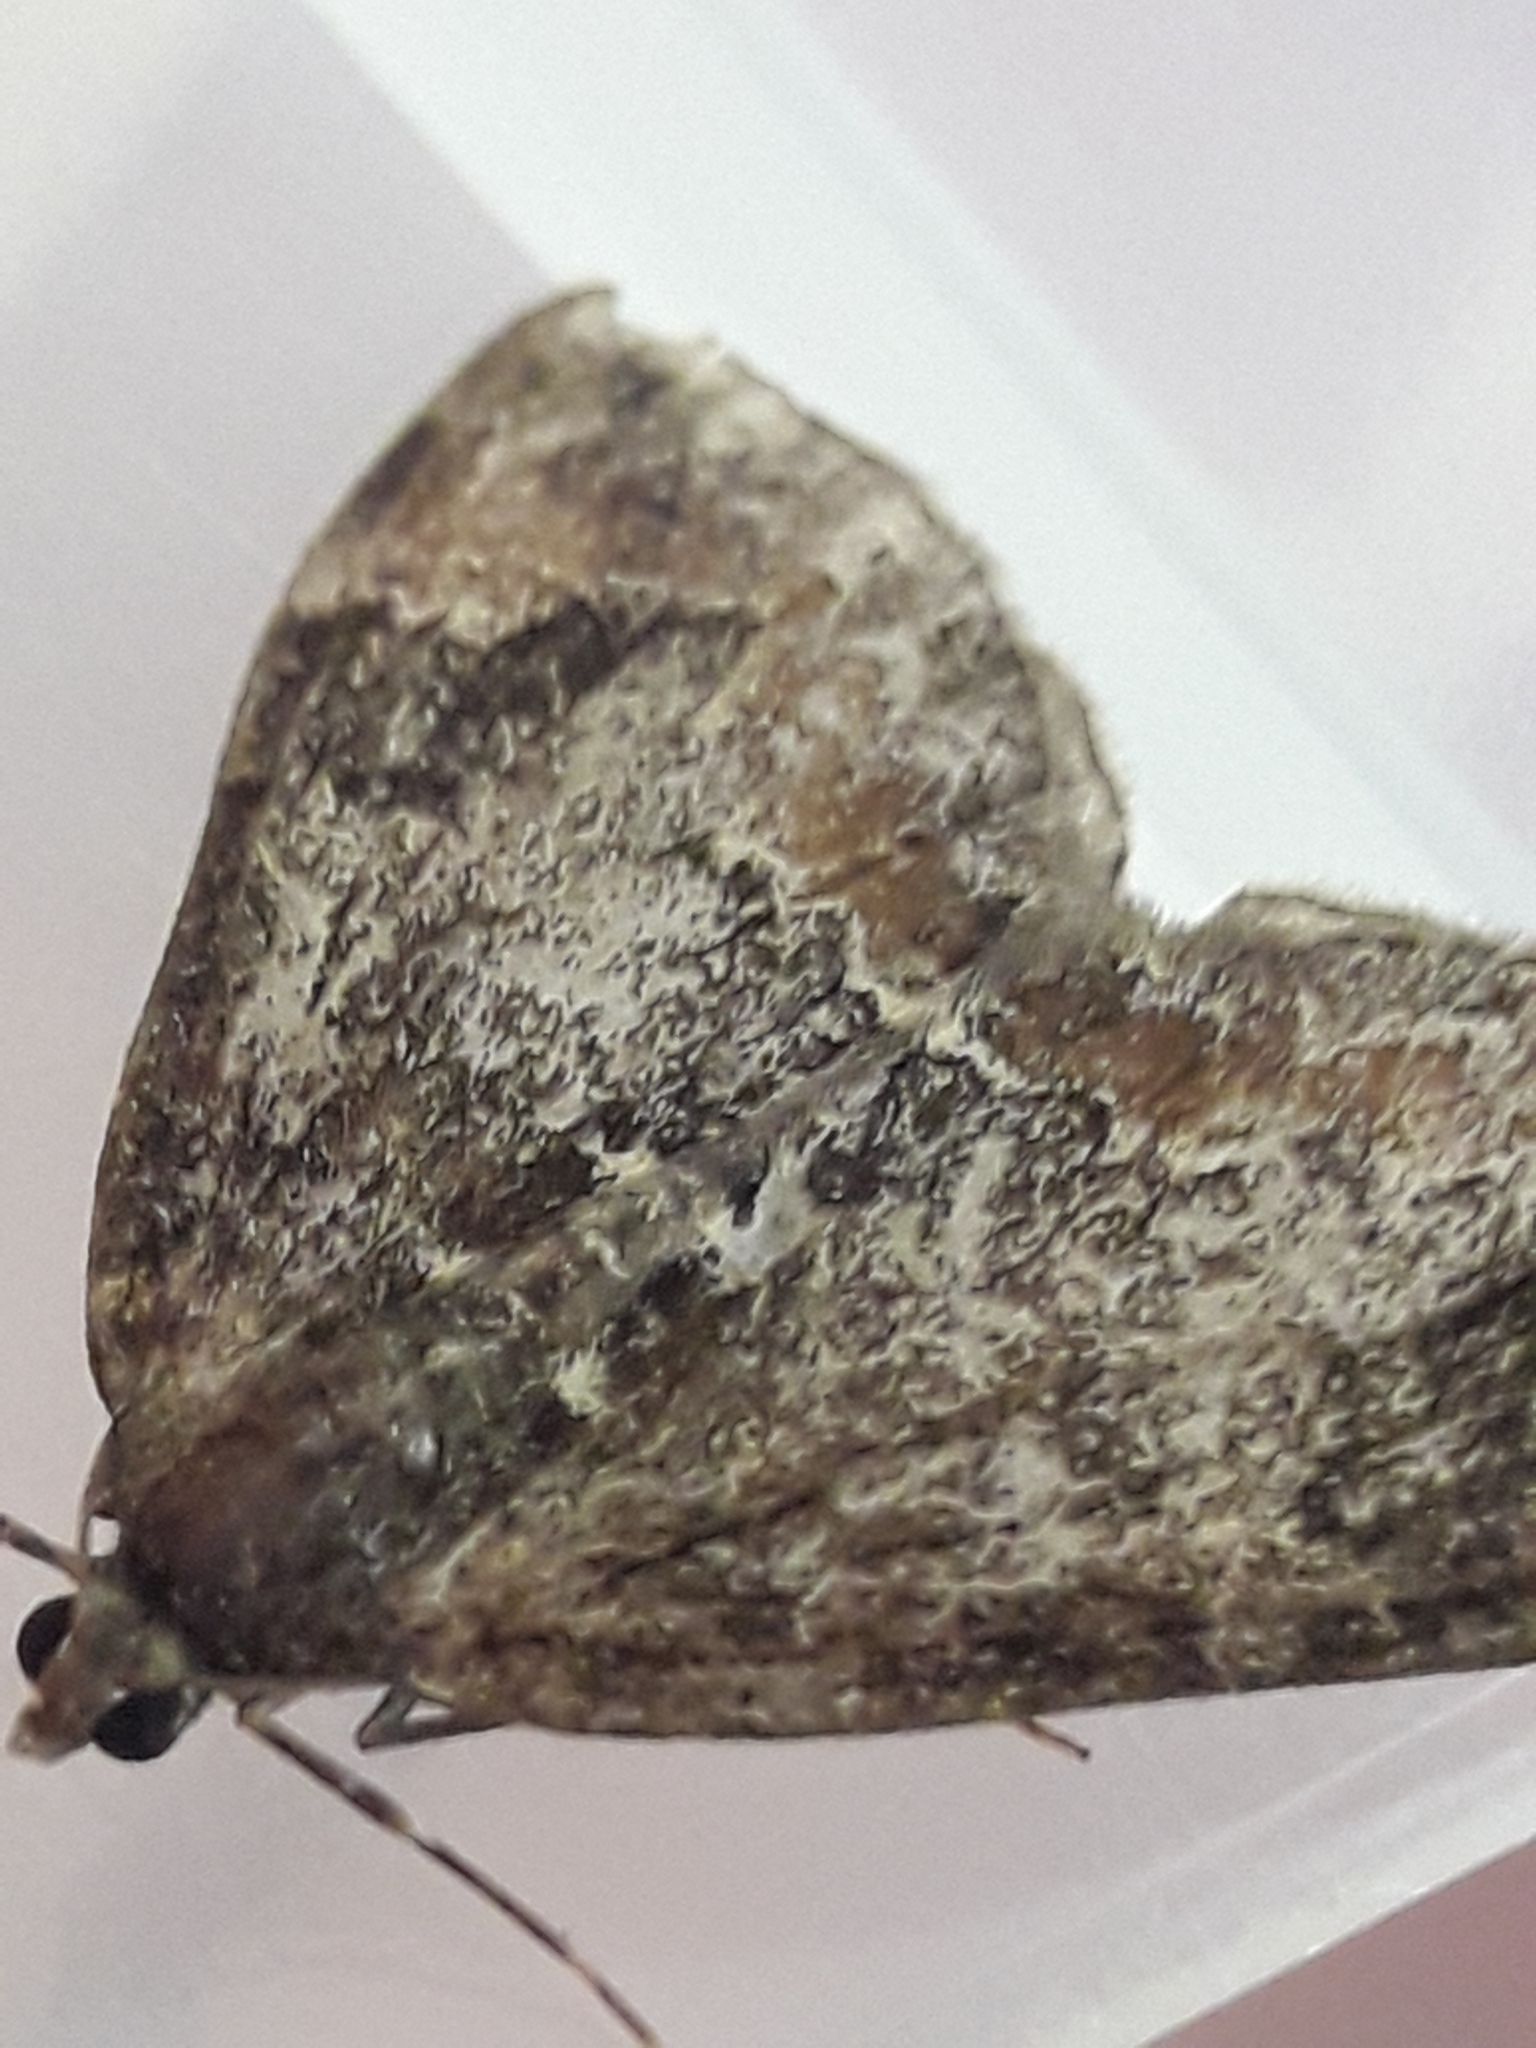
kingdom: Animalia
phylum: Arthropoda
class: Insecta
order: Lepidoptera
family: Geometridae
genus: Dysstroma
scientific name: Dysstroma truncata
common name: Common marbled carpet
